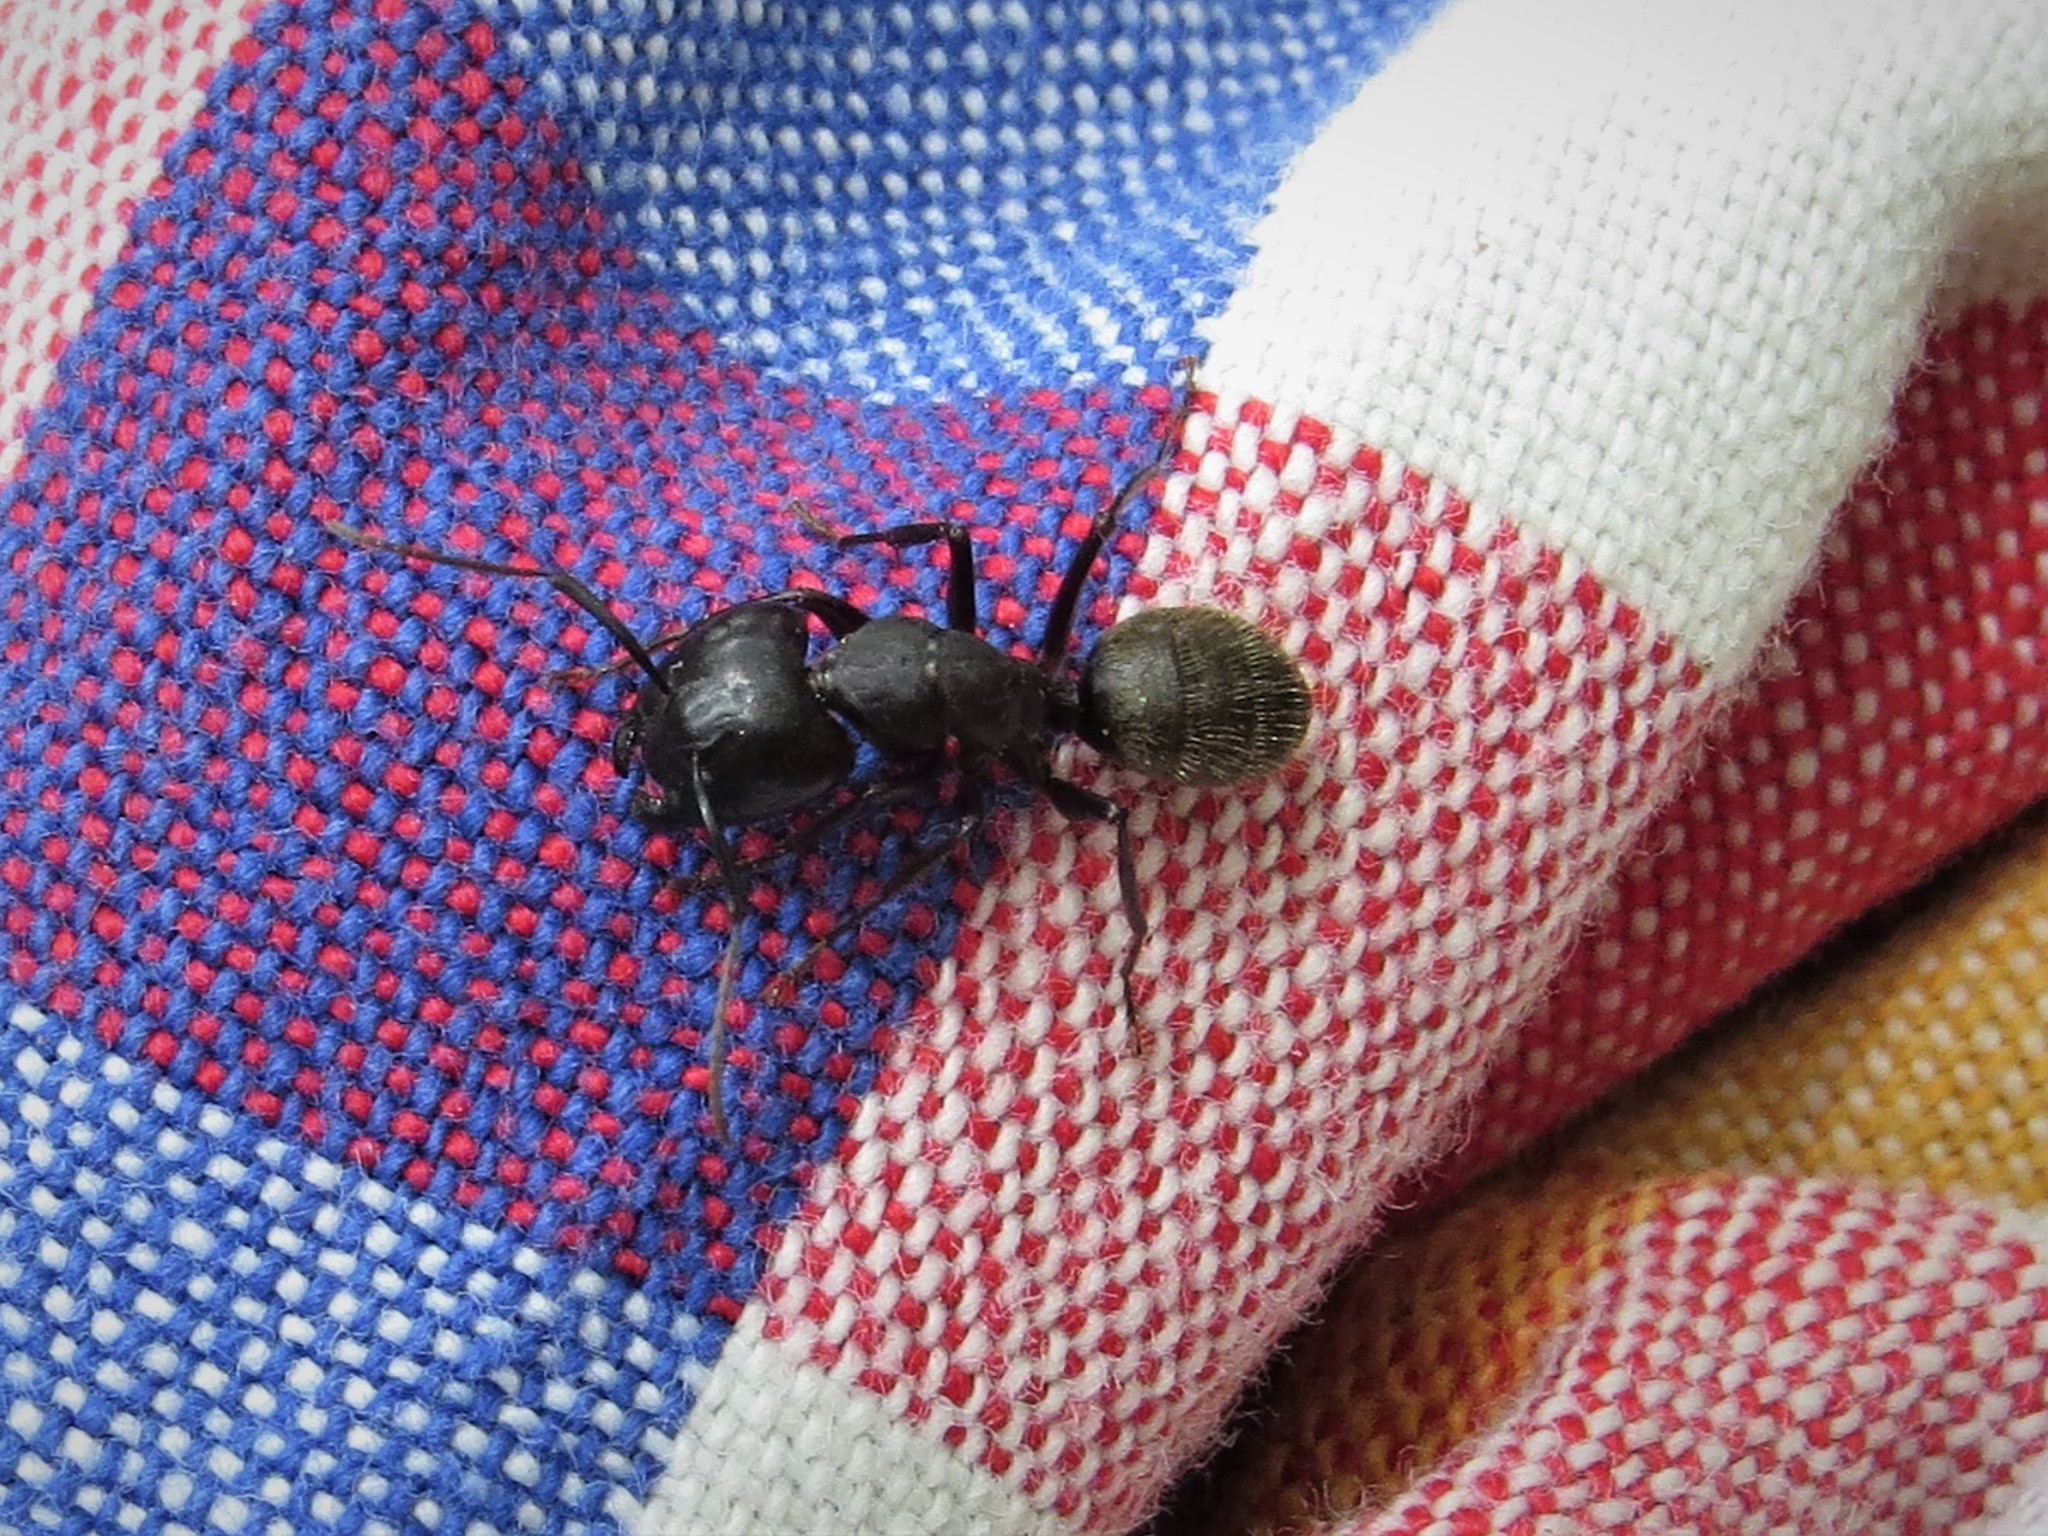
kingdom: Animalia
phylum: Arthropoda
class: Insecta
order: Hymenoptera
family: Formicidae
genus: Camponotus
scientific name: Camponotus pennsylvanicus
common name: Black carpenter ant
